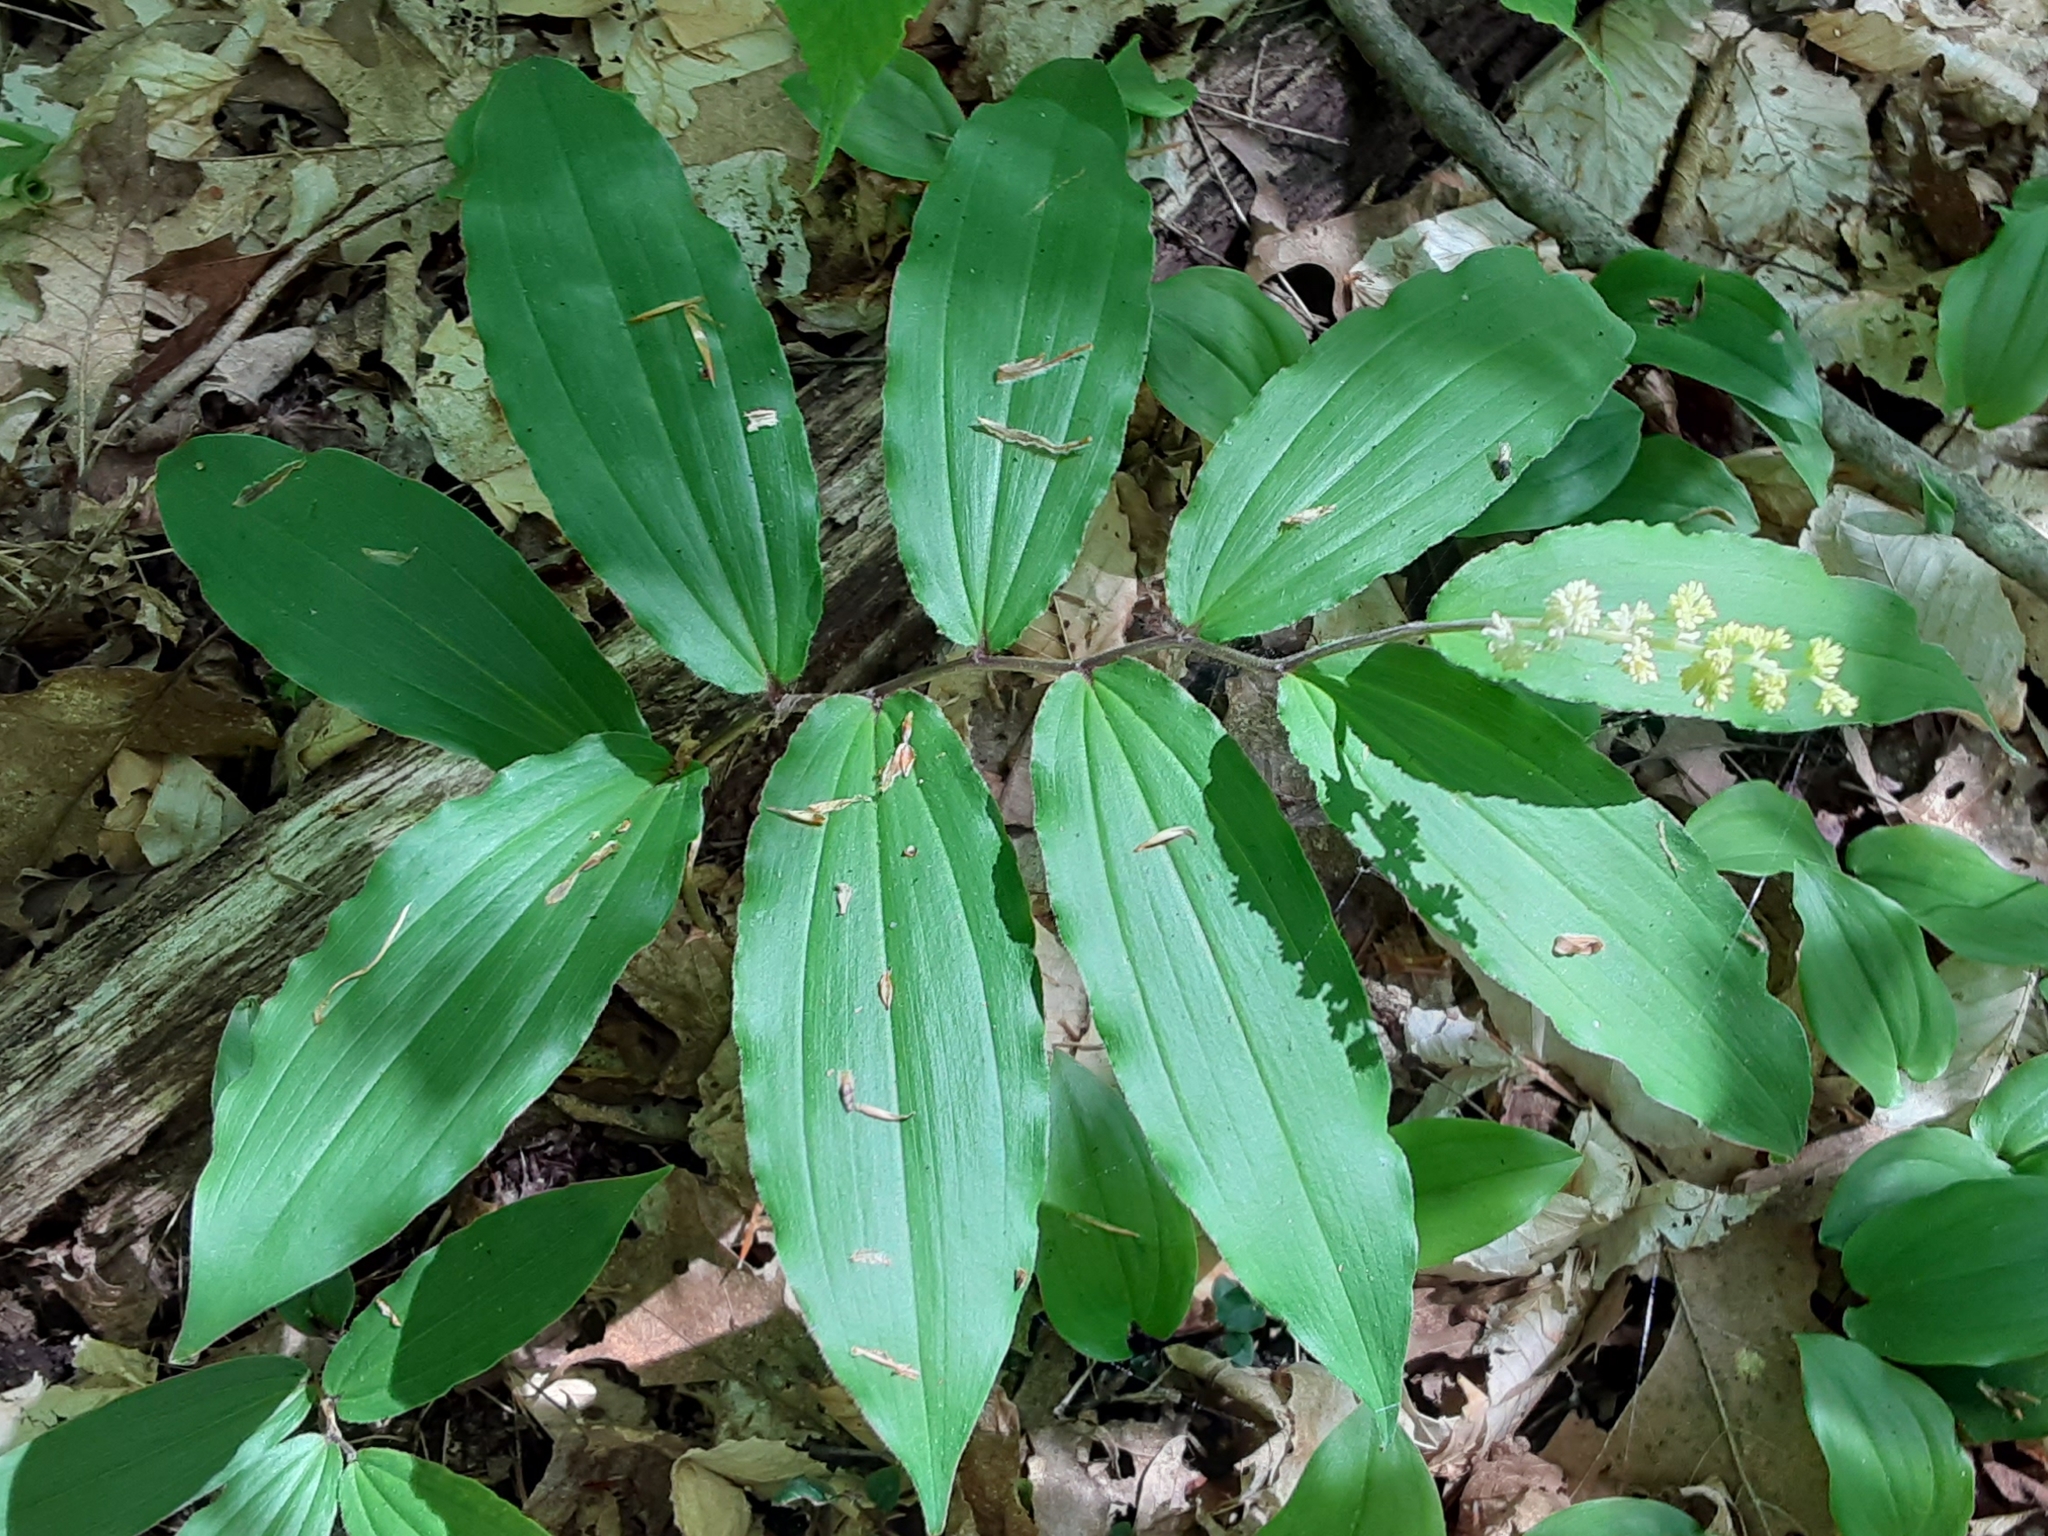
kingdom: Plantae
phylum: Tracheophyta
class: Liliopsida
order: Asparagales
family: Asparagaceae
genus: Maianthemum
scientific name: Maianthemum racemosum
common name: False spikenard
